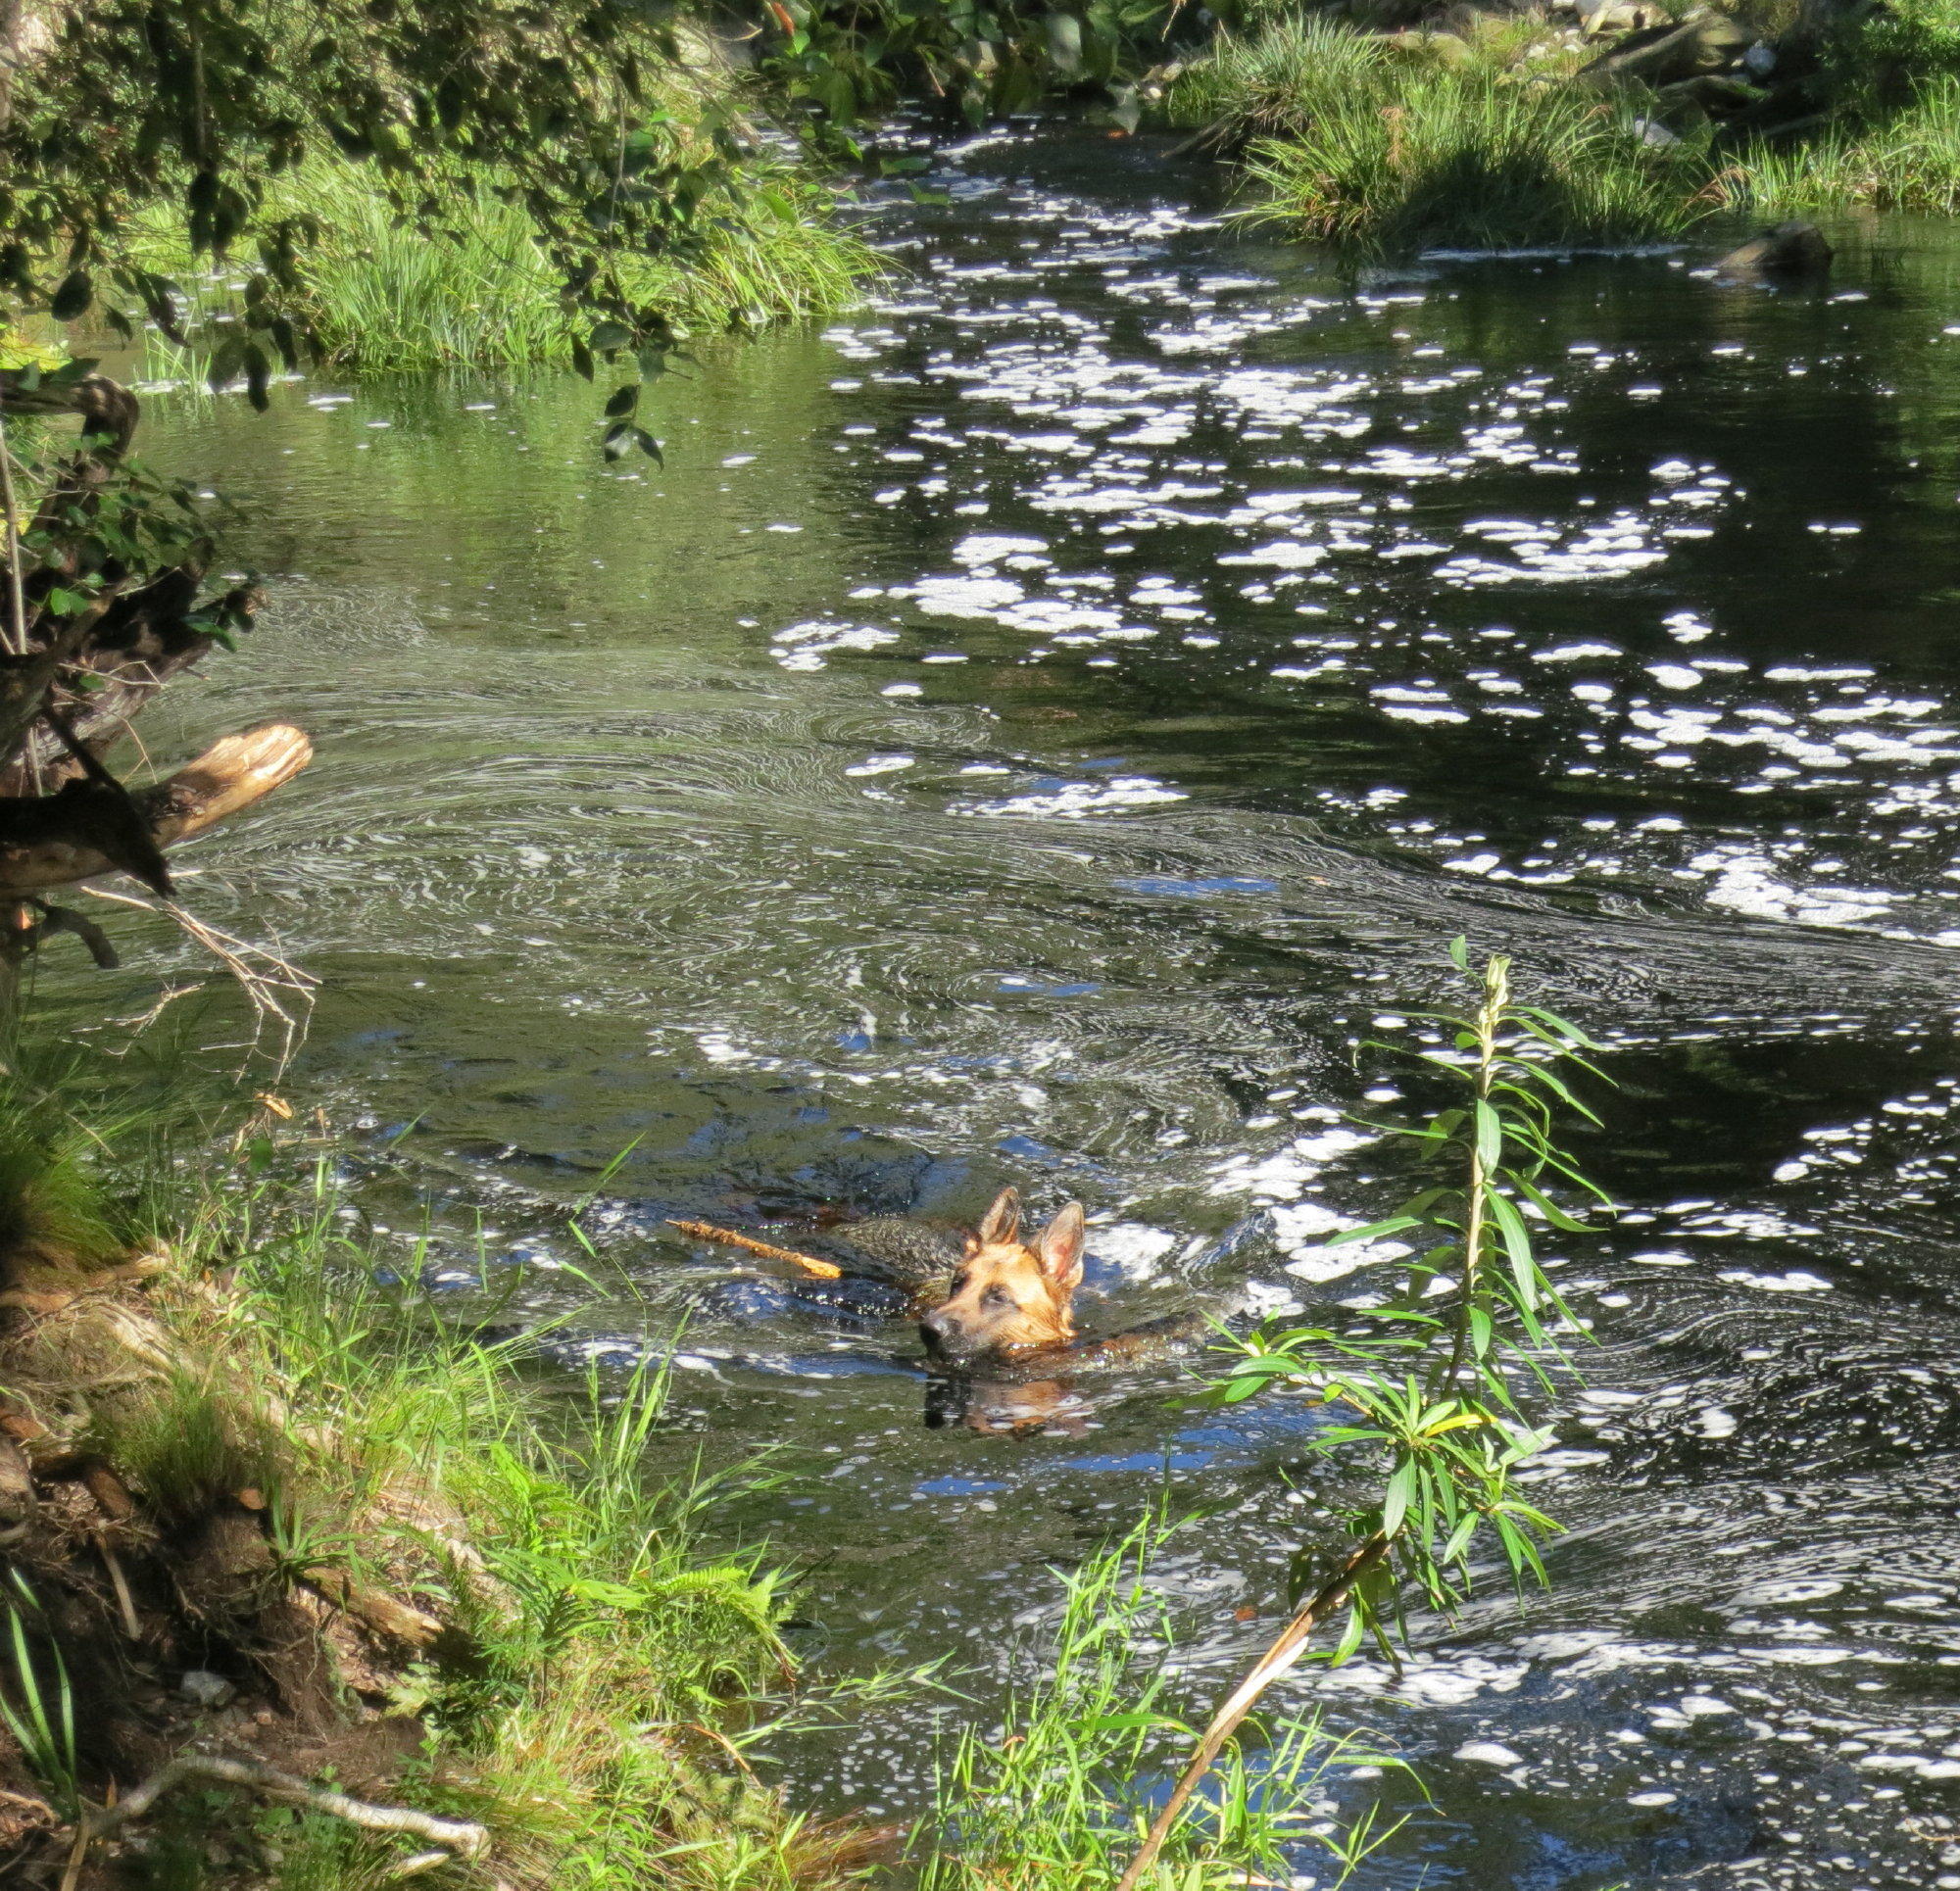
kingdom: Plantae
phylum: Tracheophyta
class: Liliopsida
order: Poales
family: Thurniaceae
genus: Prionium
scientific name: Prionium serratum
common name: Palmiet
